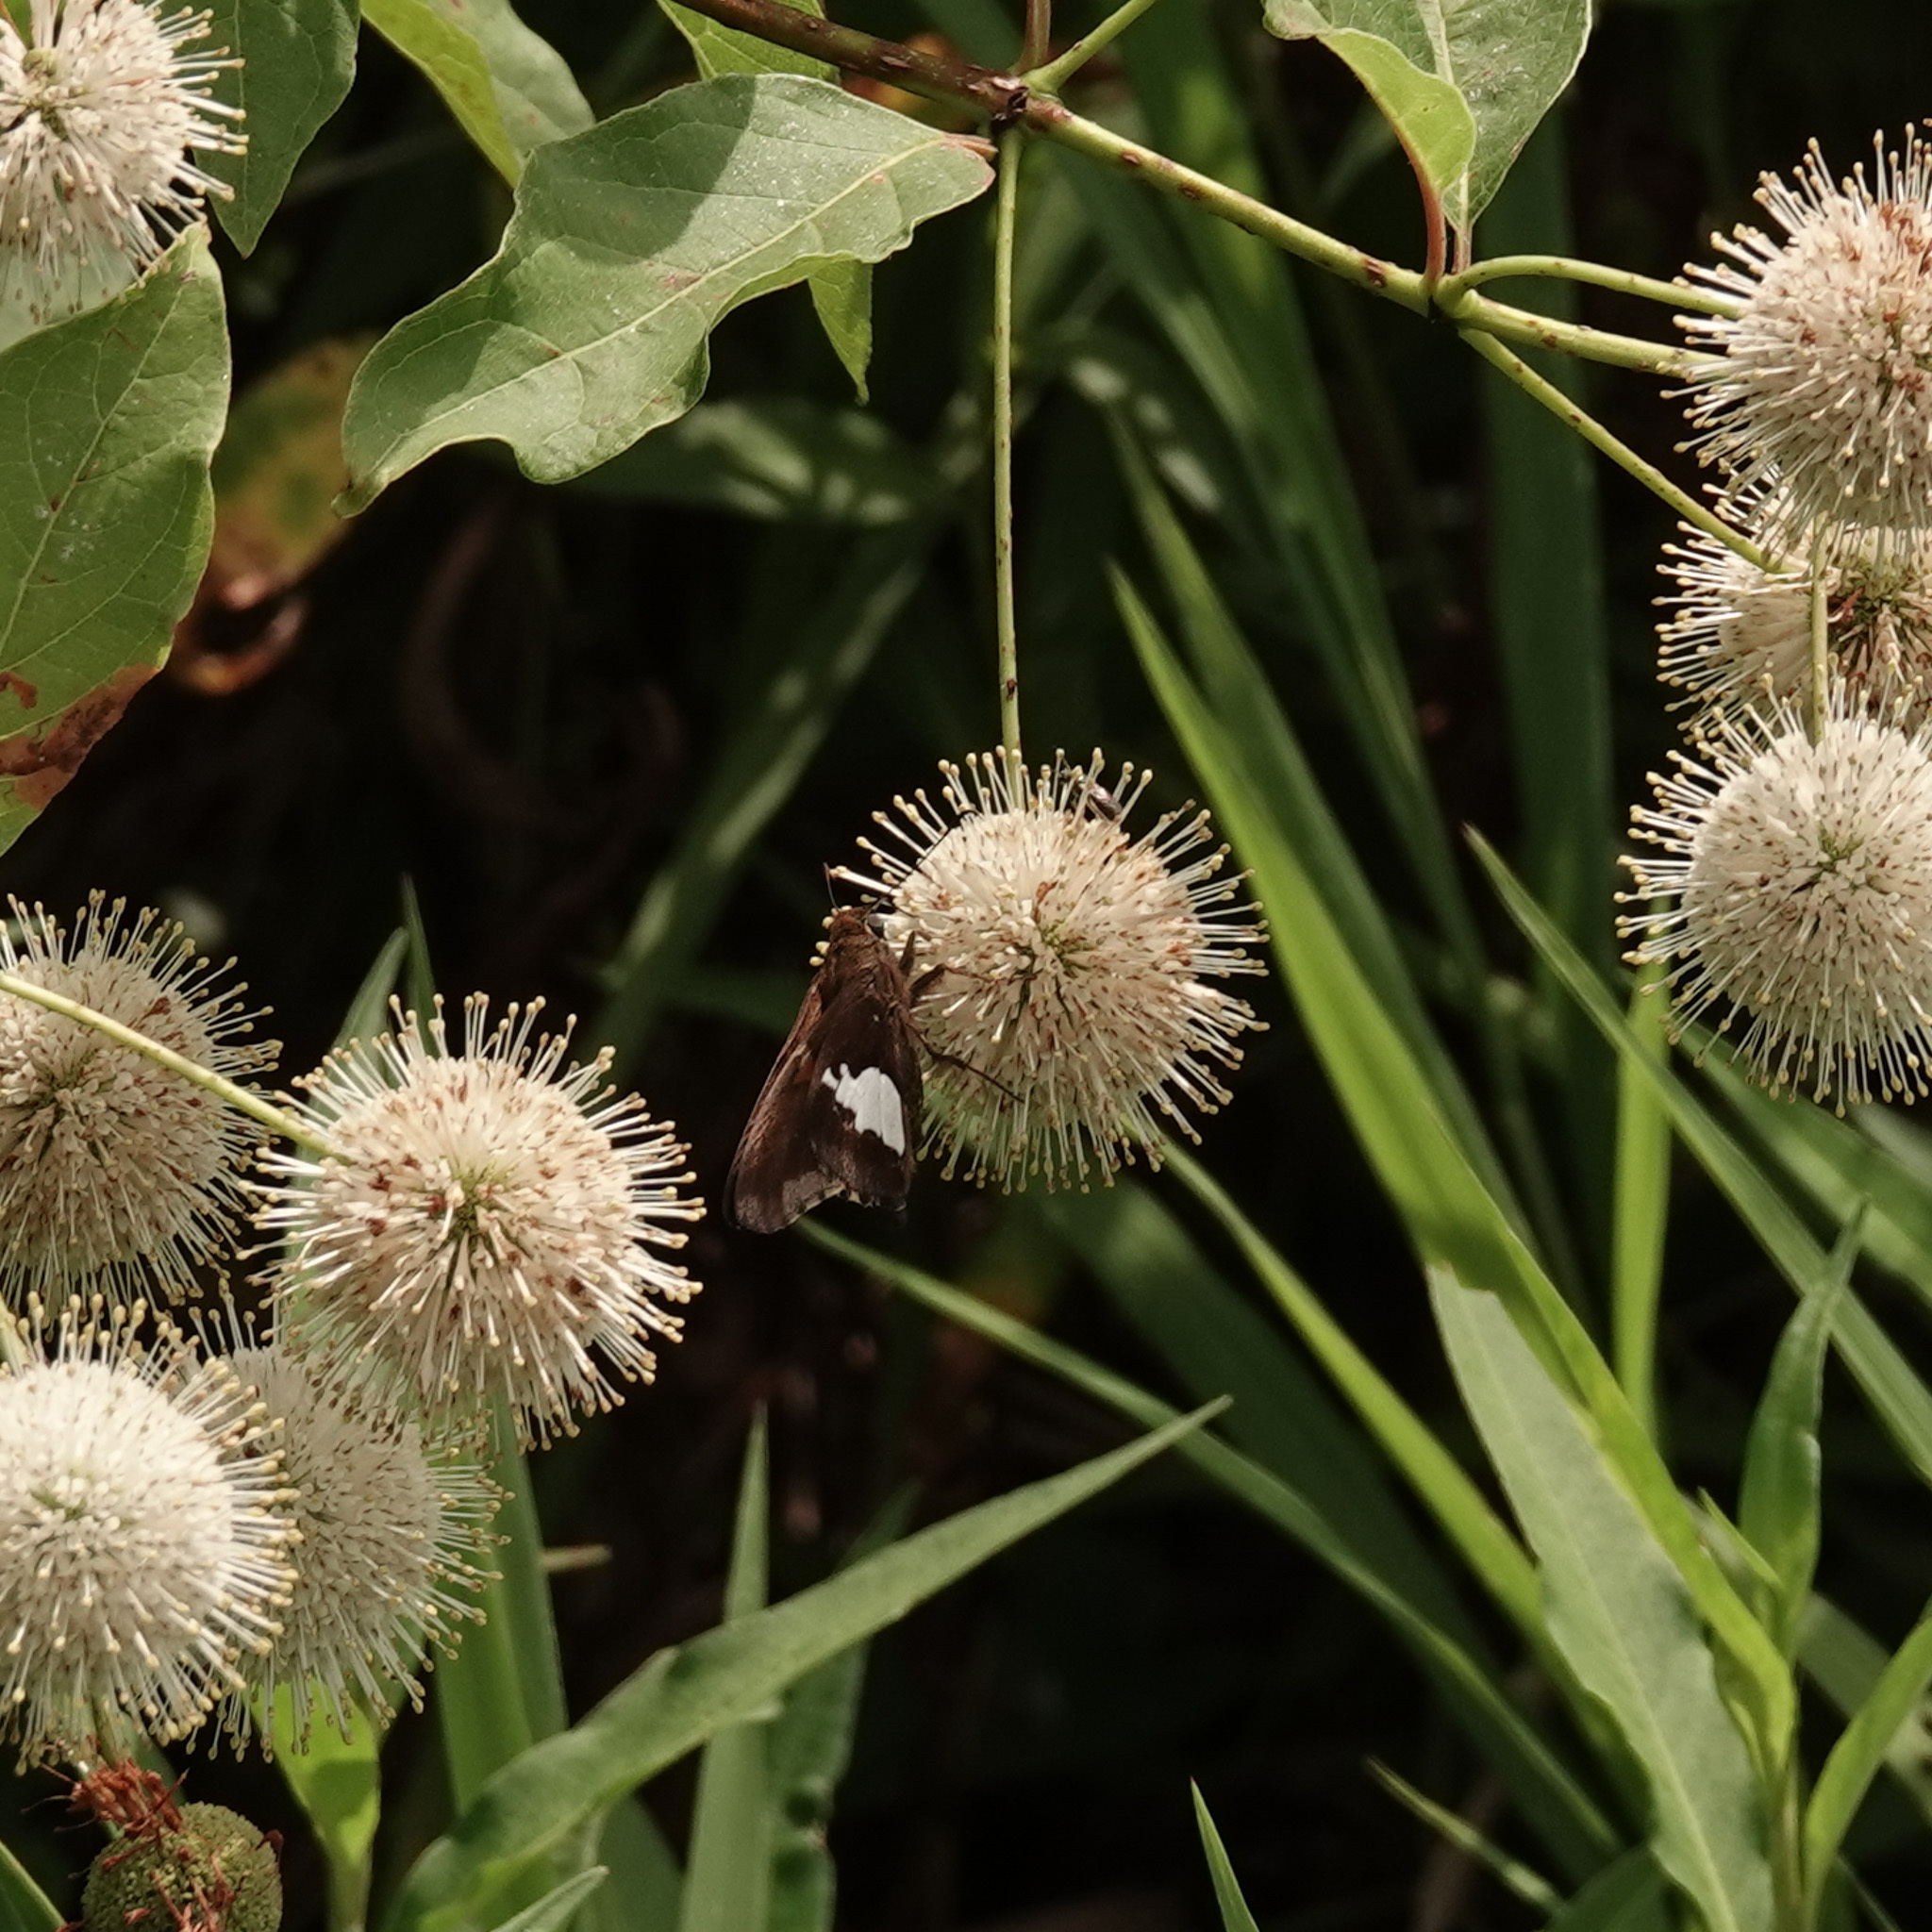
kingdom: Animalia
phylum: Arthropoda
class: Insecta
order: Lepidoptera
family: Hesperiidae
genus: Epargyreus
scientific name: Epargyreus clarus
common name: Silver-spotted skipper
